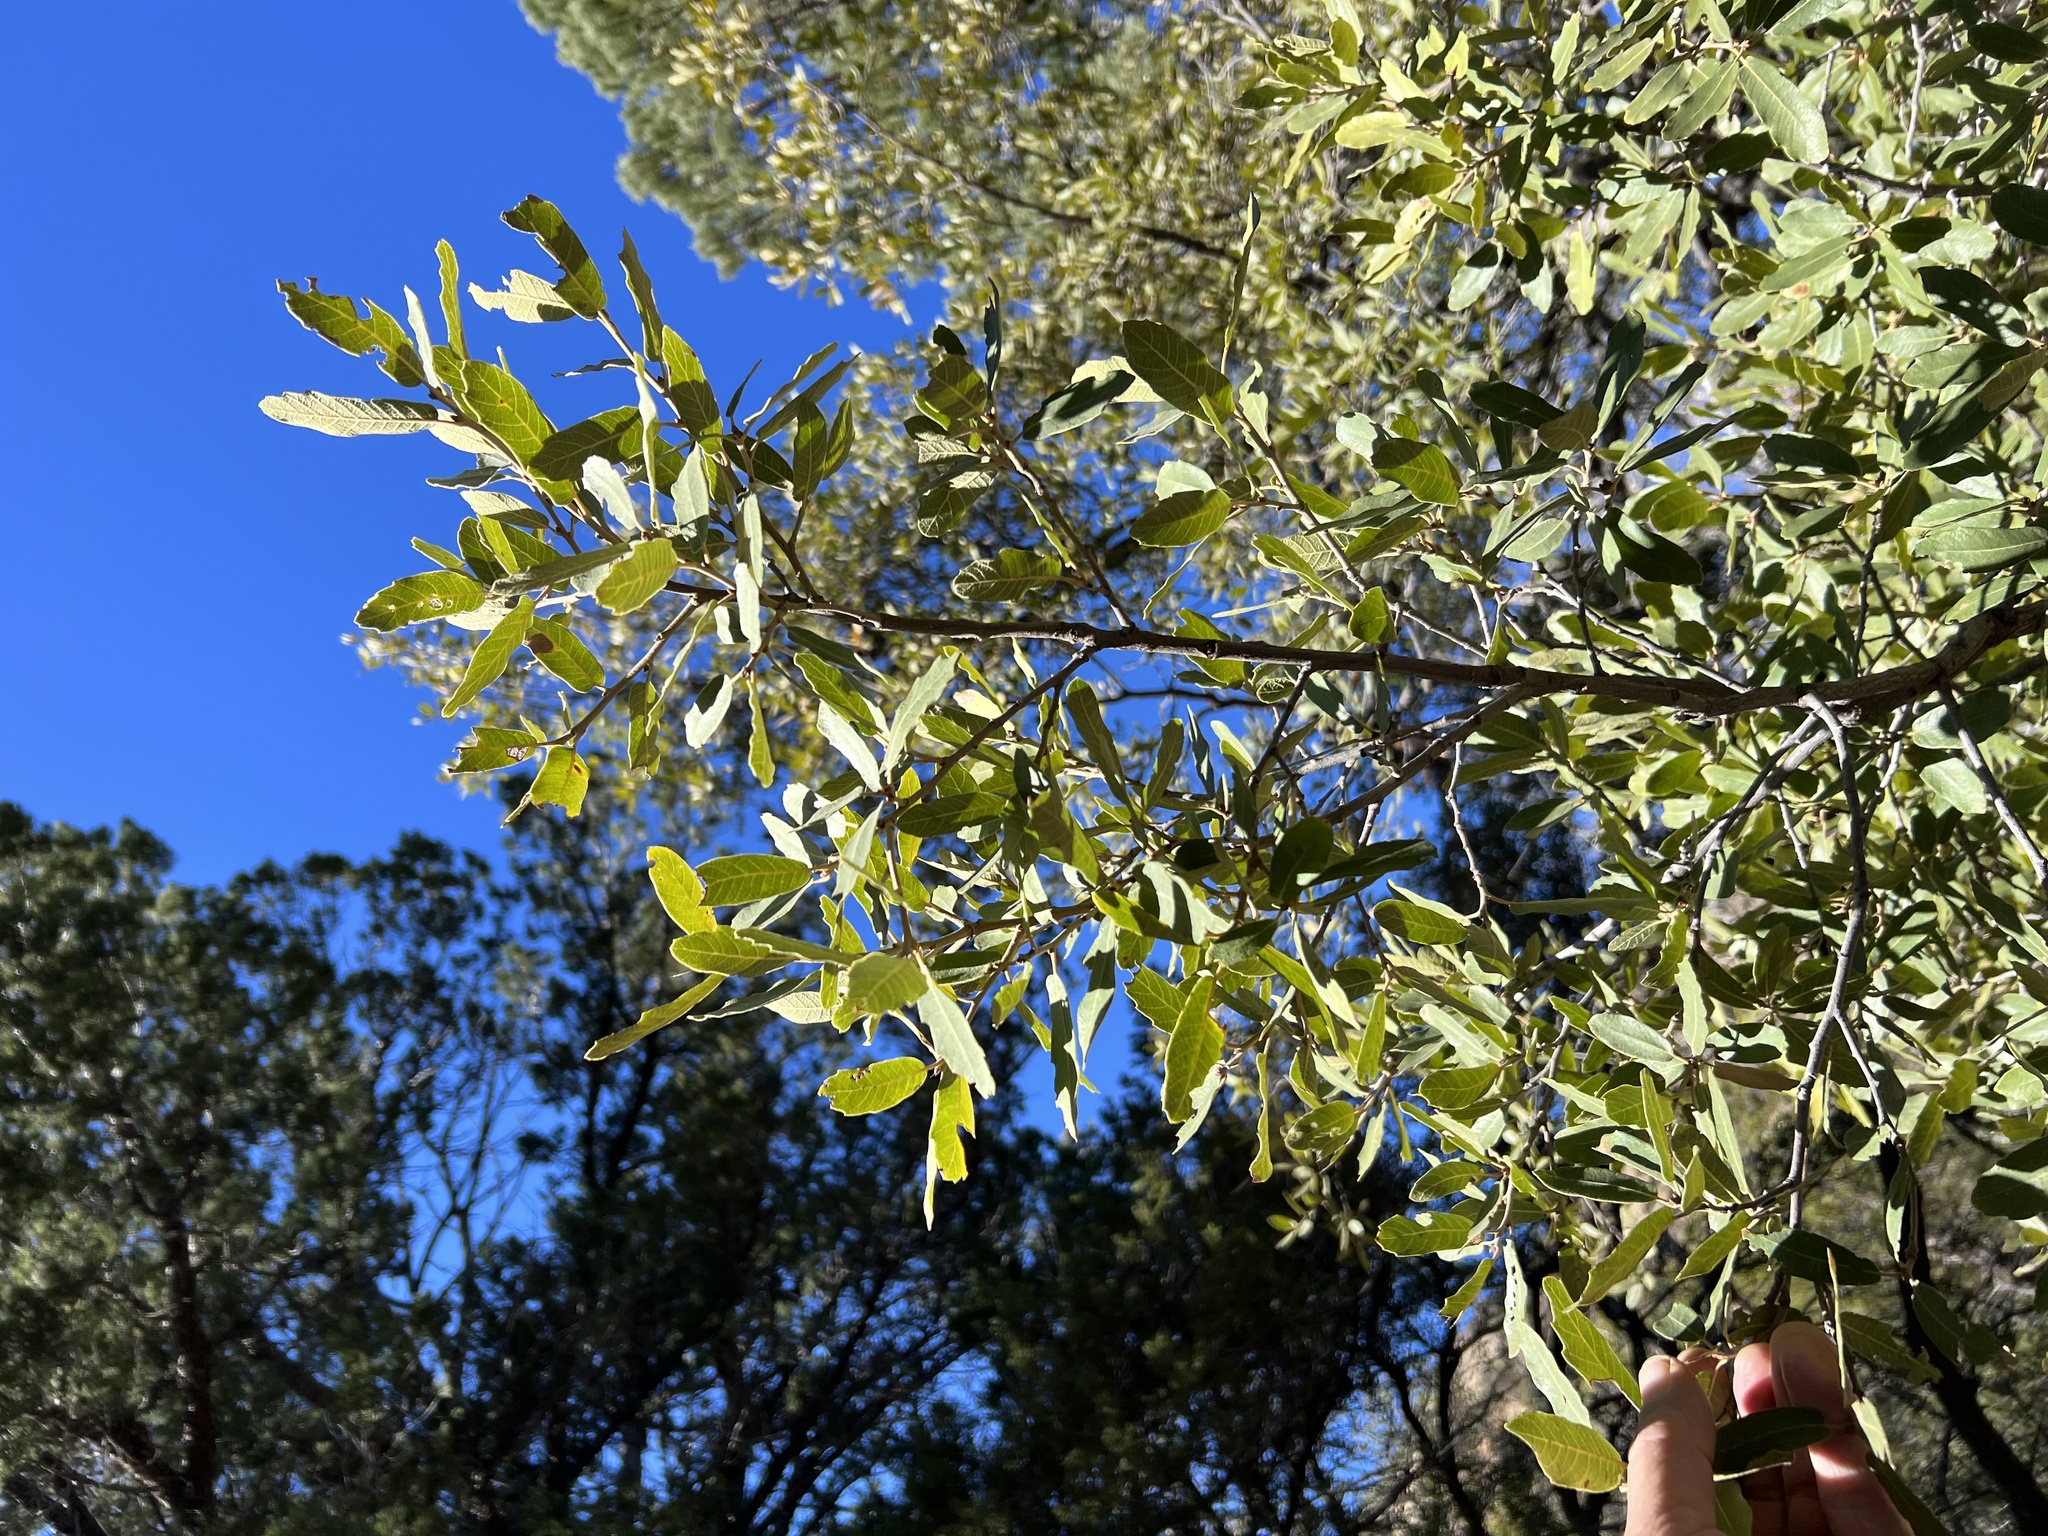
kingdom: Plantae
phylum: Tracheophyta
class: Magnoliopsida
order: Fagales
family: Fagaceae
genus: Quercus
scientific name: Quercus arizonica
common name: Arizona white oak
